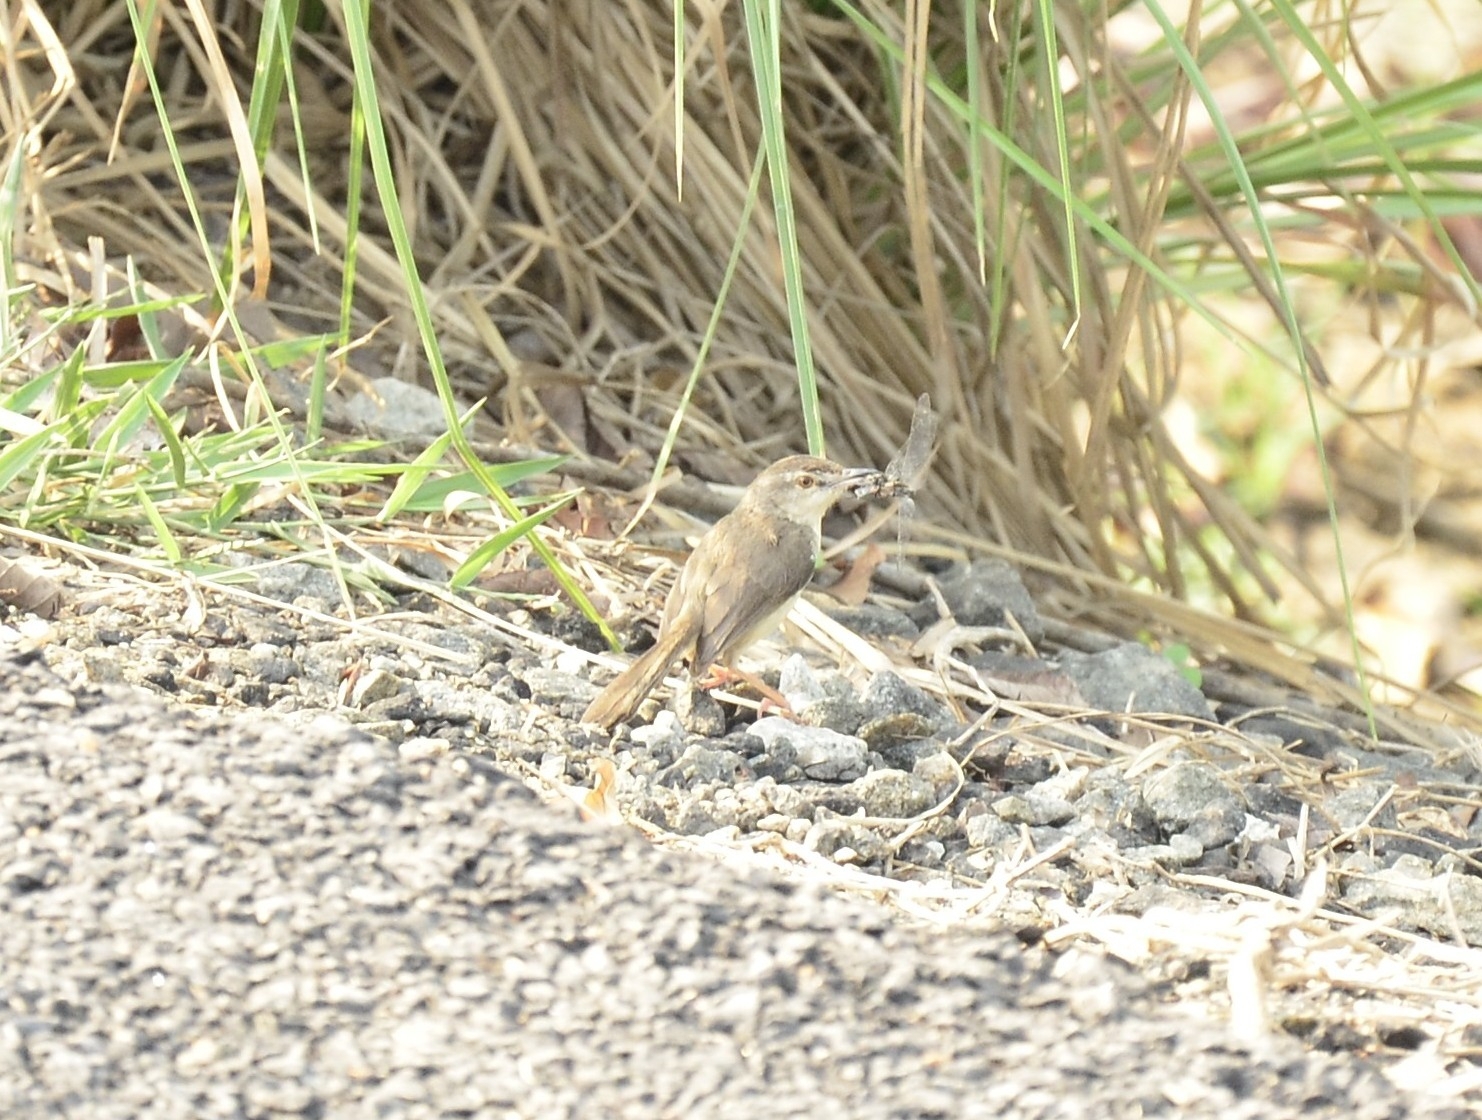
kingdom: Animalia
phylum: Chordata
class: Aves
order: Passeriformes
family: Cisticolidae
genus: Prinia
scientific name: Prinia inornata
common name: Plain prinia
